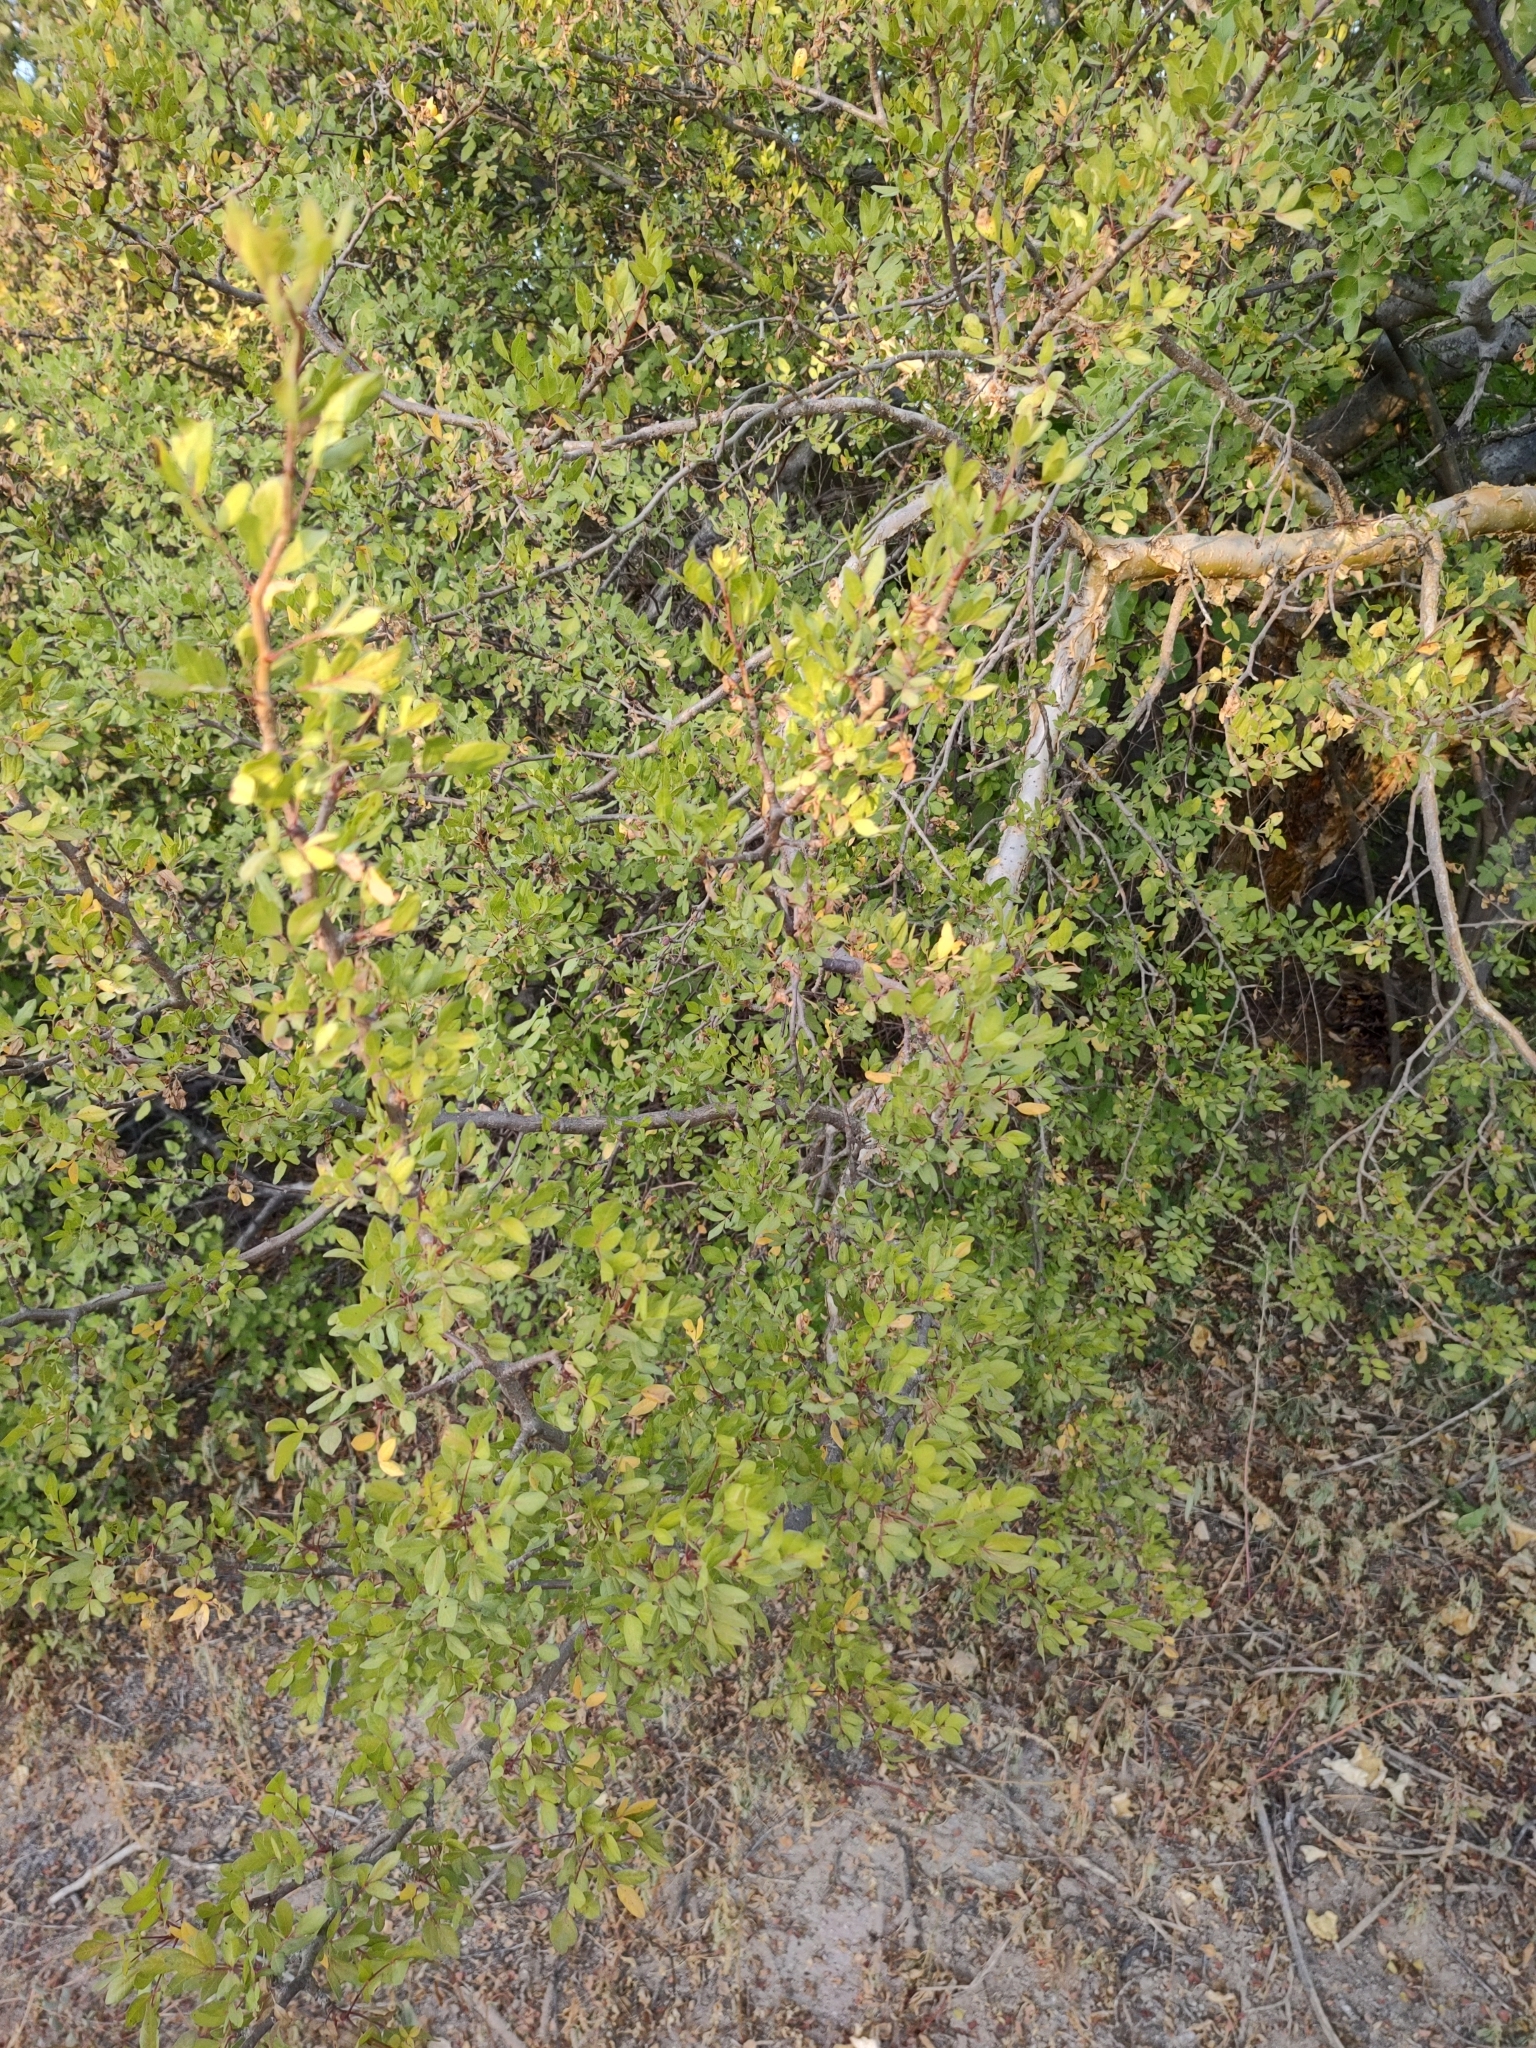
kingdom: Plantae
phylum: Tracheophyta
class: Magnoliopsida
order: Sapindales
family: Burseraceae
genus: Bursera
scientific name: Bursera fagaroides
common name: Elephant tree
